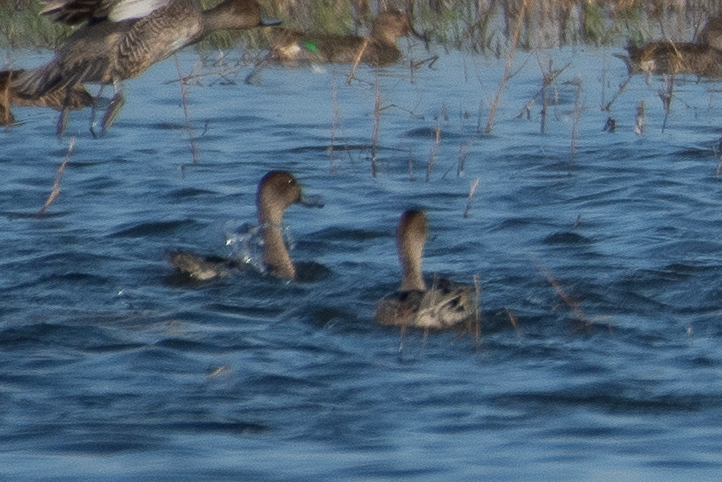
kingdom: Animalia
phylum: Chordata
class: Aves
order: Anseriformes
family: Anatidae
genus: Anas
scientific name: Anas acuta
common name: Northern pintail
